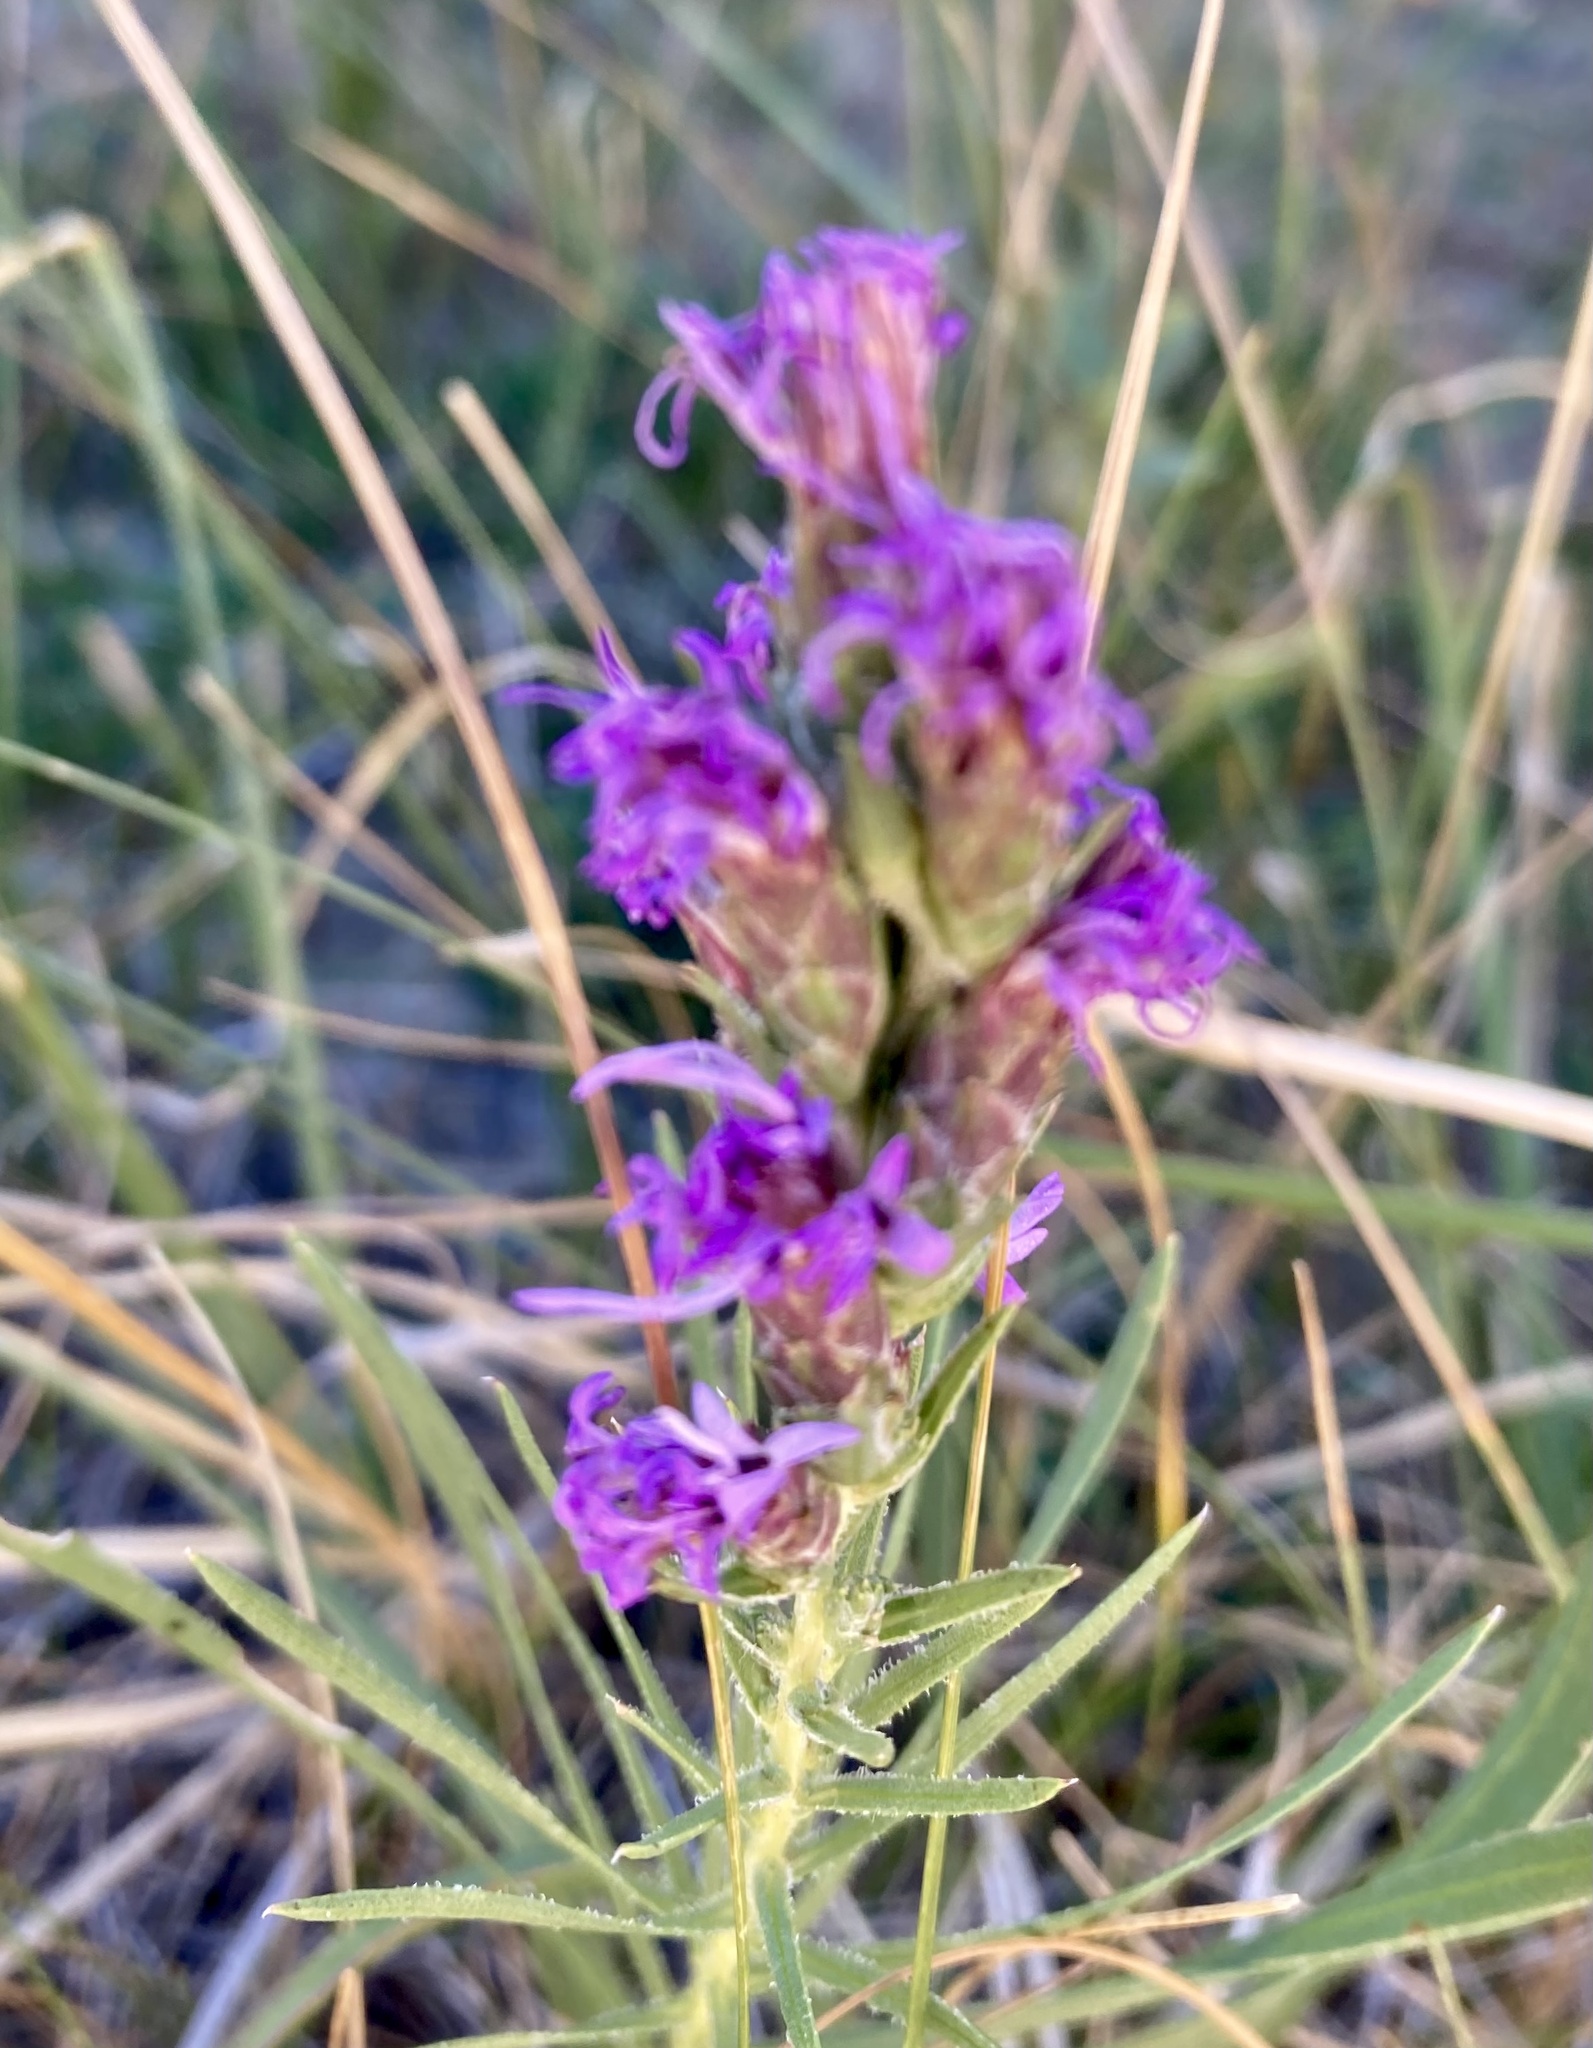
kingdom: Plantae
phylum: Tracheophyta
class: Magnoliopsida
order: Asterales
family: Asteraceae
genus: Liatris
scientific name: Liatris punctata
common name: Dotted gayfeather
